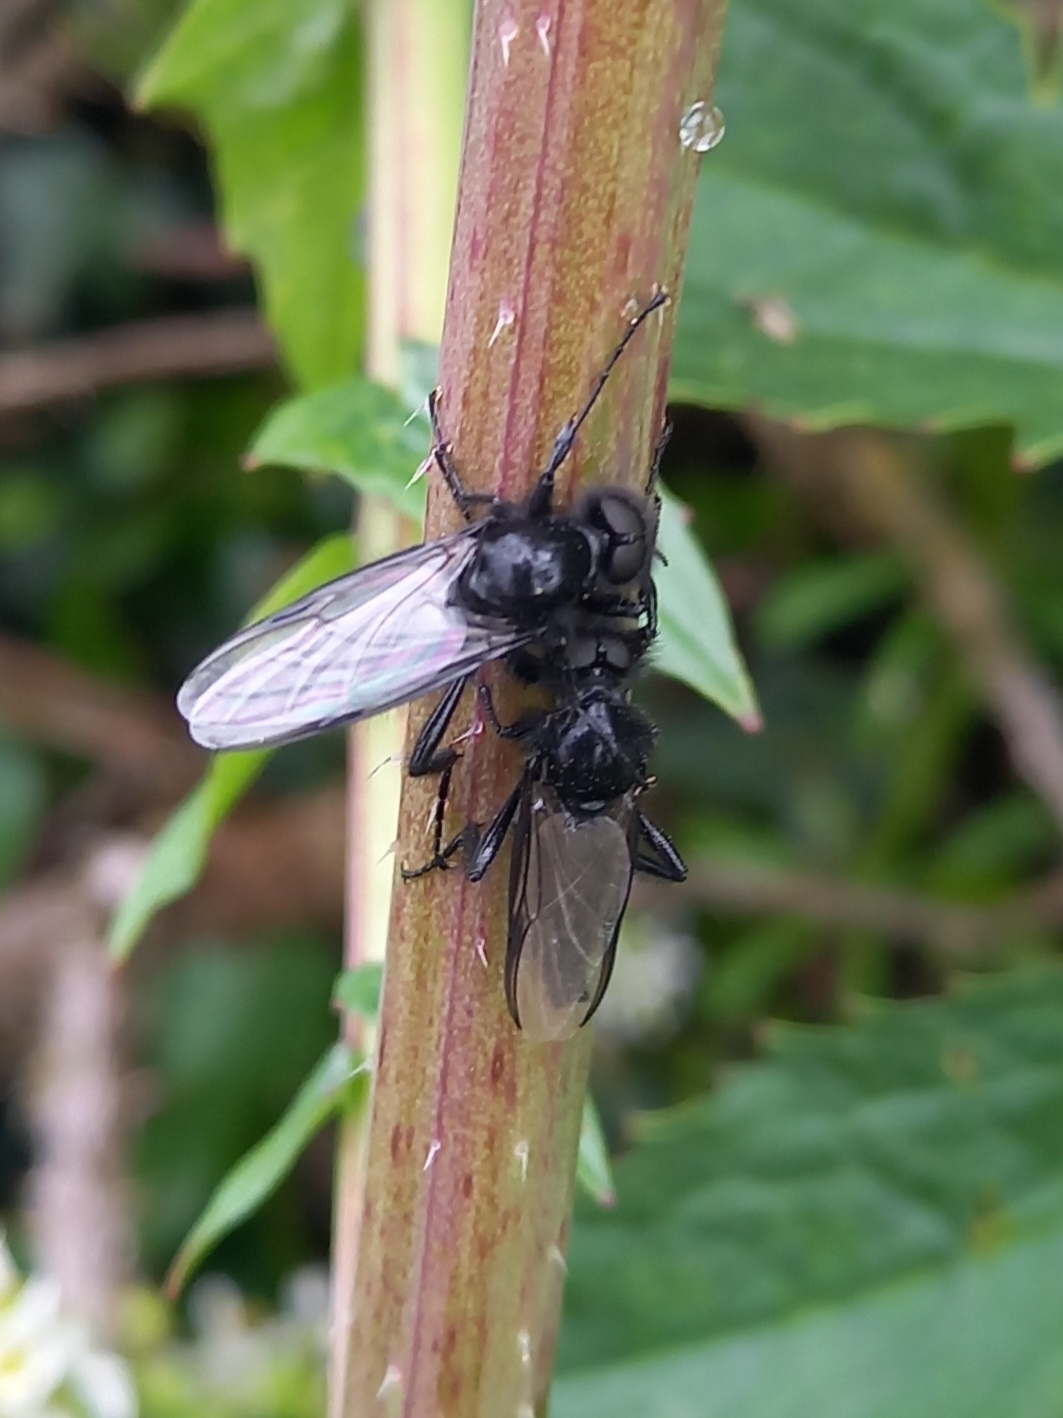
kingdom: Animalia
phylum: Arthropoda
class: Insecta
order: Diptera
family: Bibionidae
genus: Bibio
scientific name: Bibio marci
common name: St marks fly
